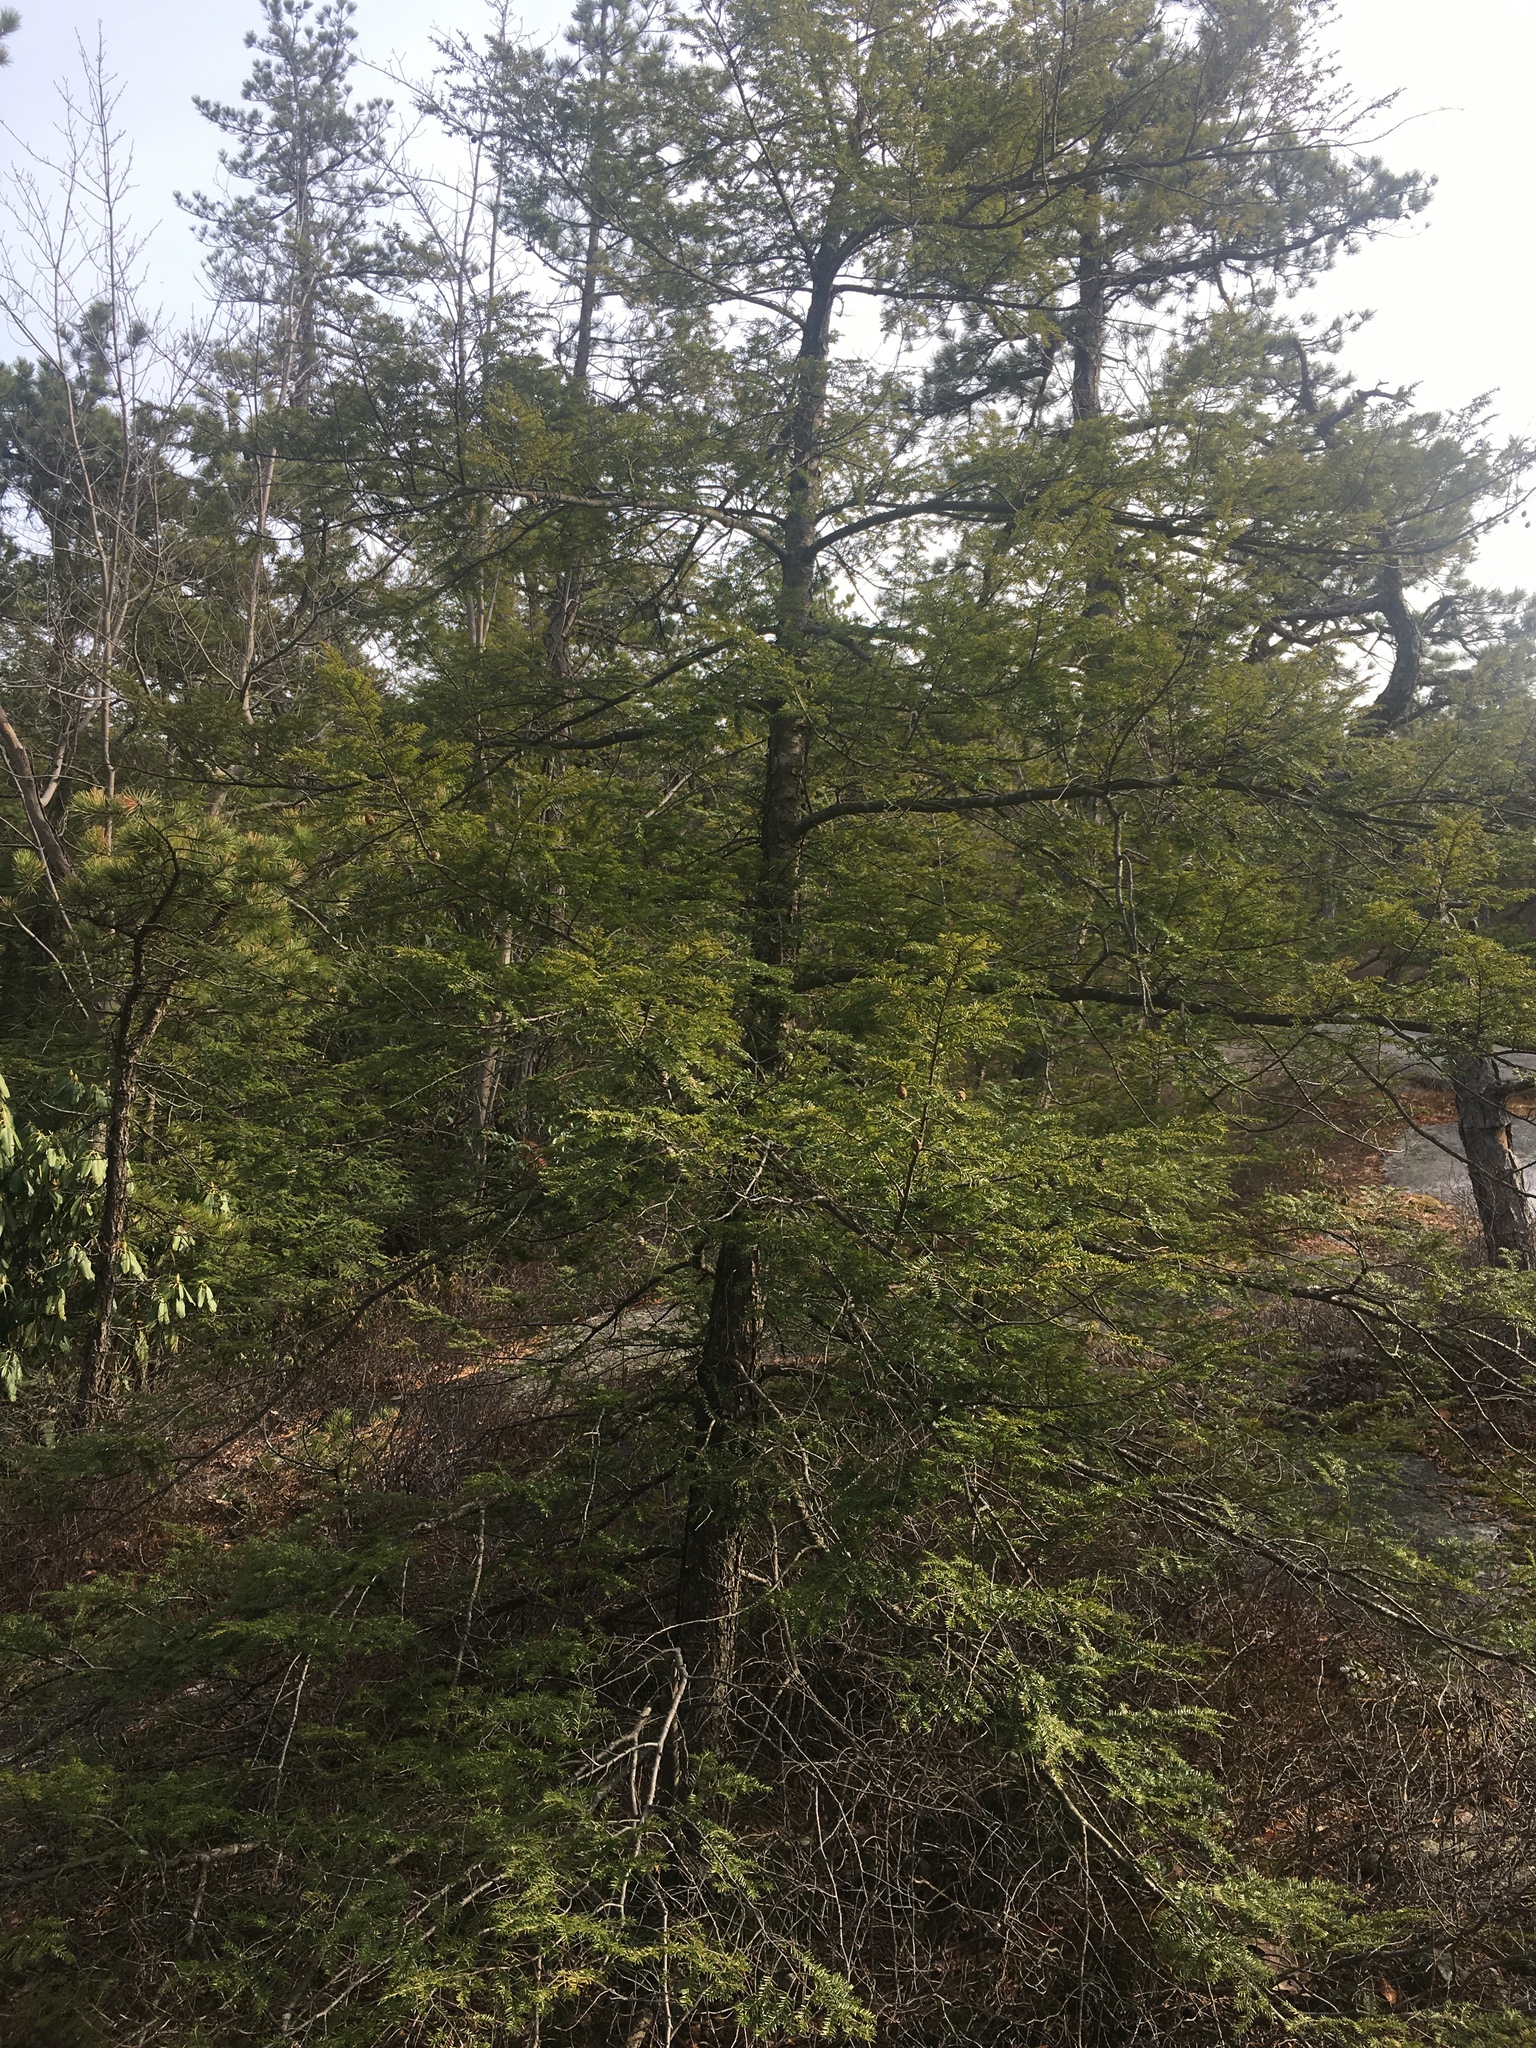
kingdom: Plantae
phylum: Tracheophyta
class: Pinopsida
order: Pinales
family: Pinaceae
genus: Tsuga
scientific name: Tsuga canadensis
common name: Eastern hemlock
